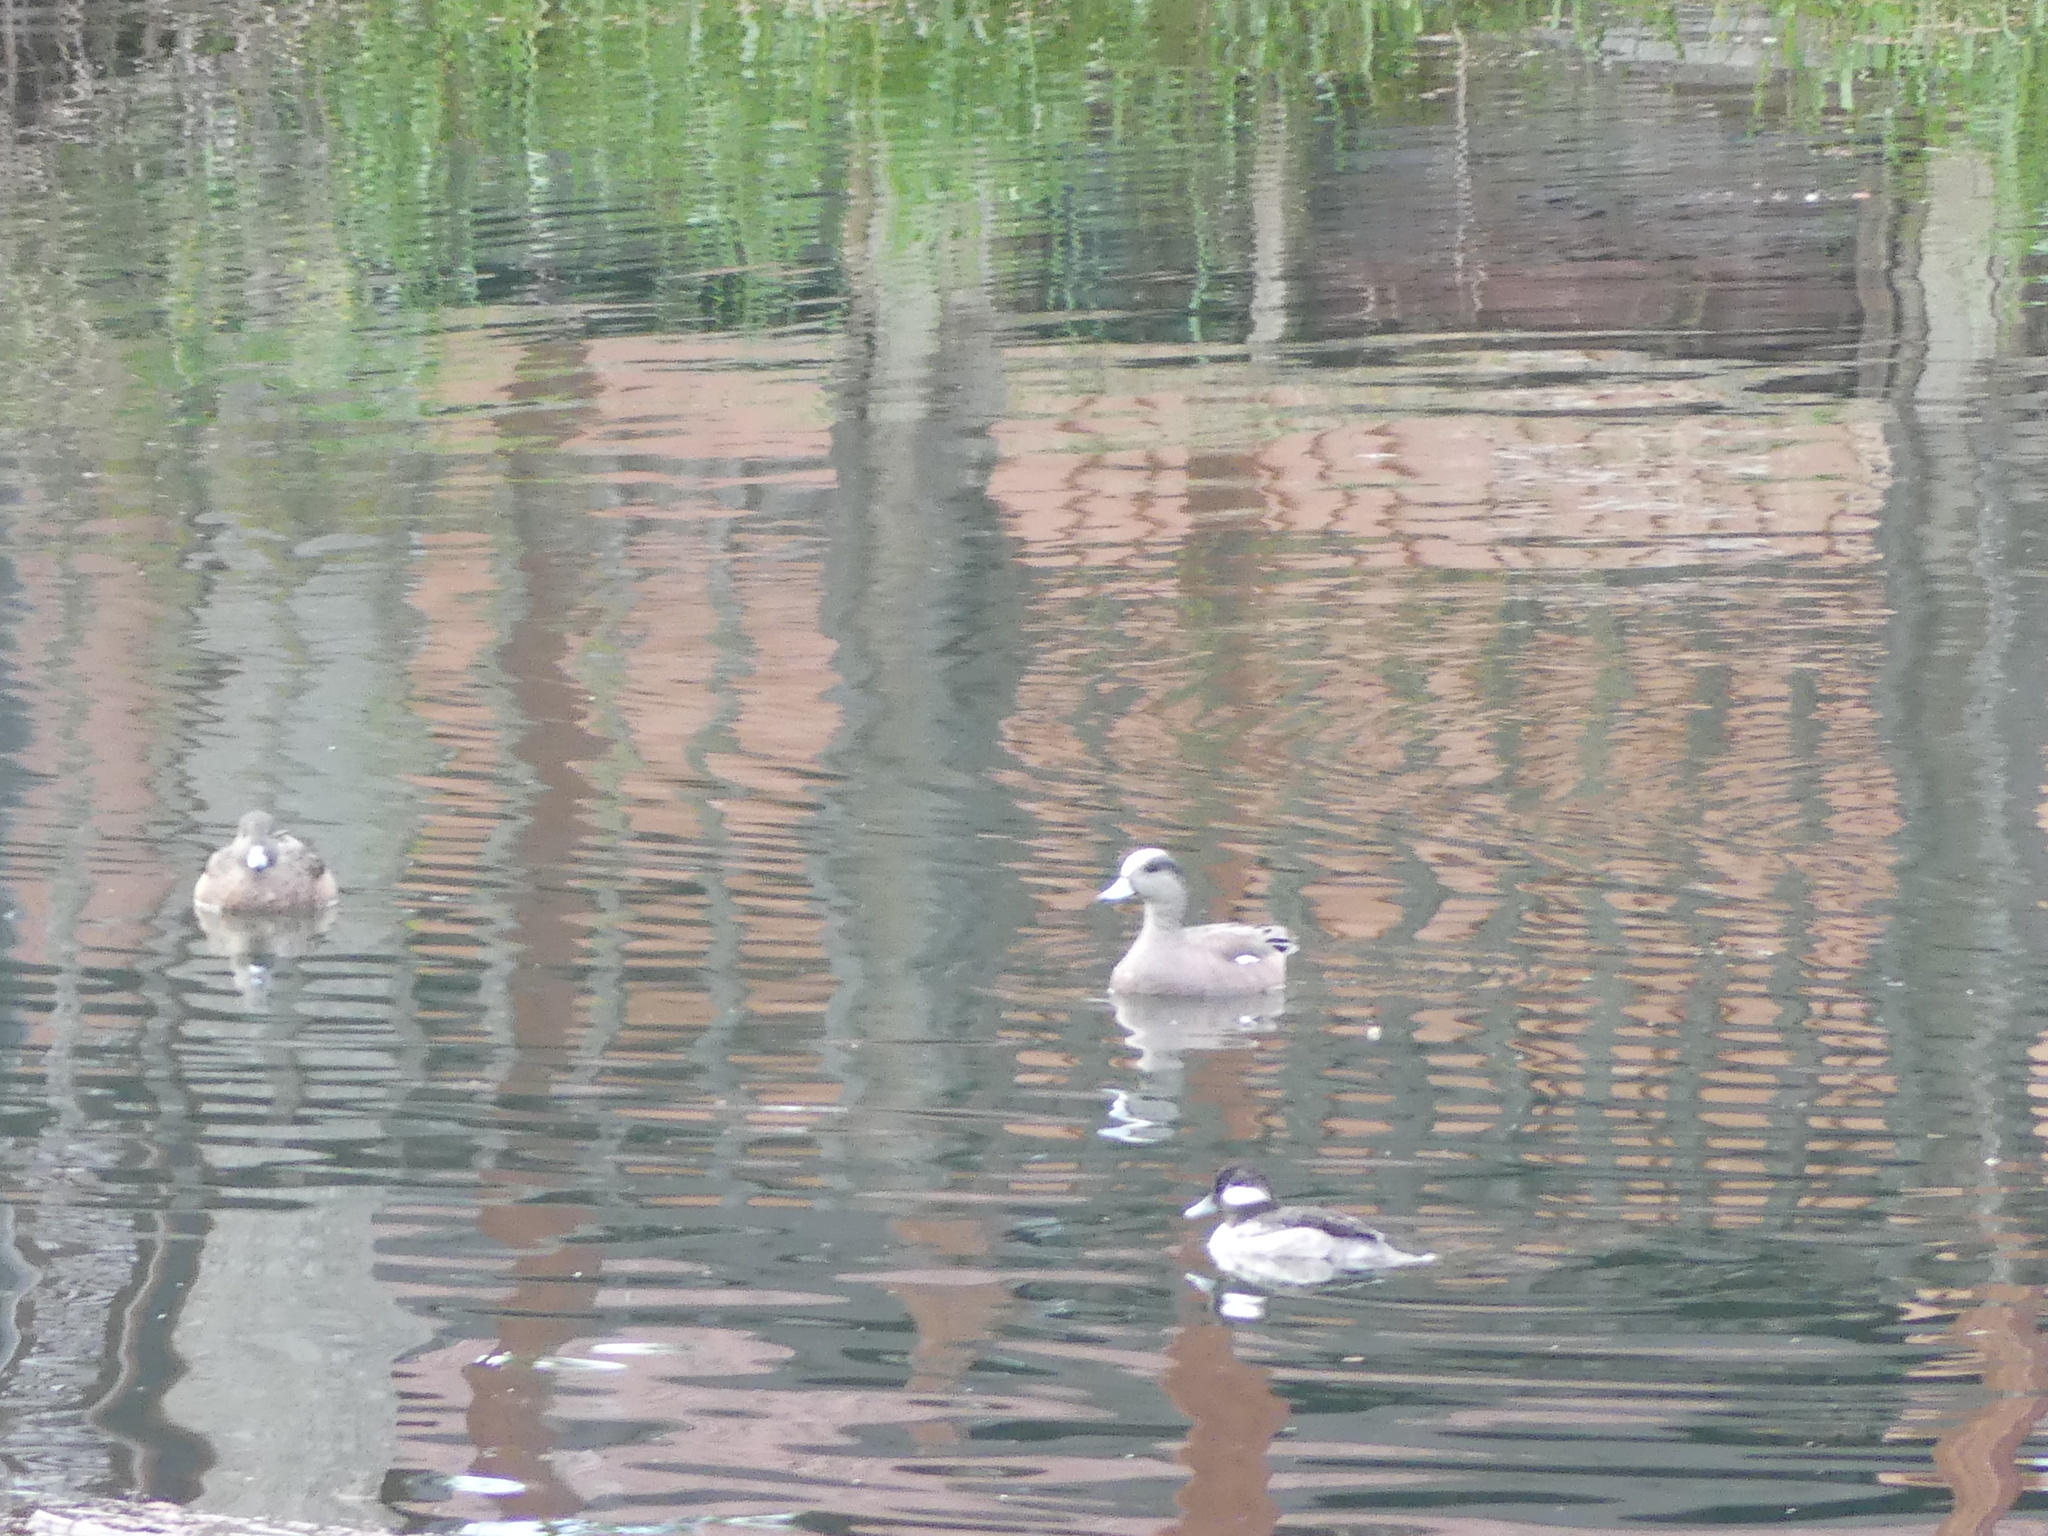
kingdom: Animalia
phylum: Chordata
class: Aves
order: Anseriformes
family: Anatidae
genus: Mareca
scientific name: Mareca americana
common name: American wigeon
